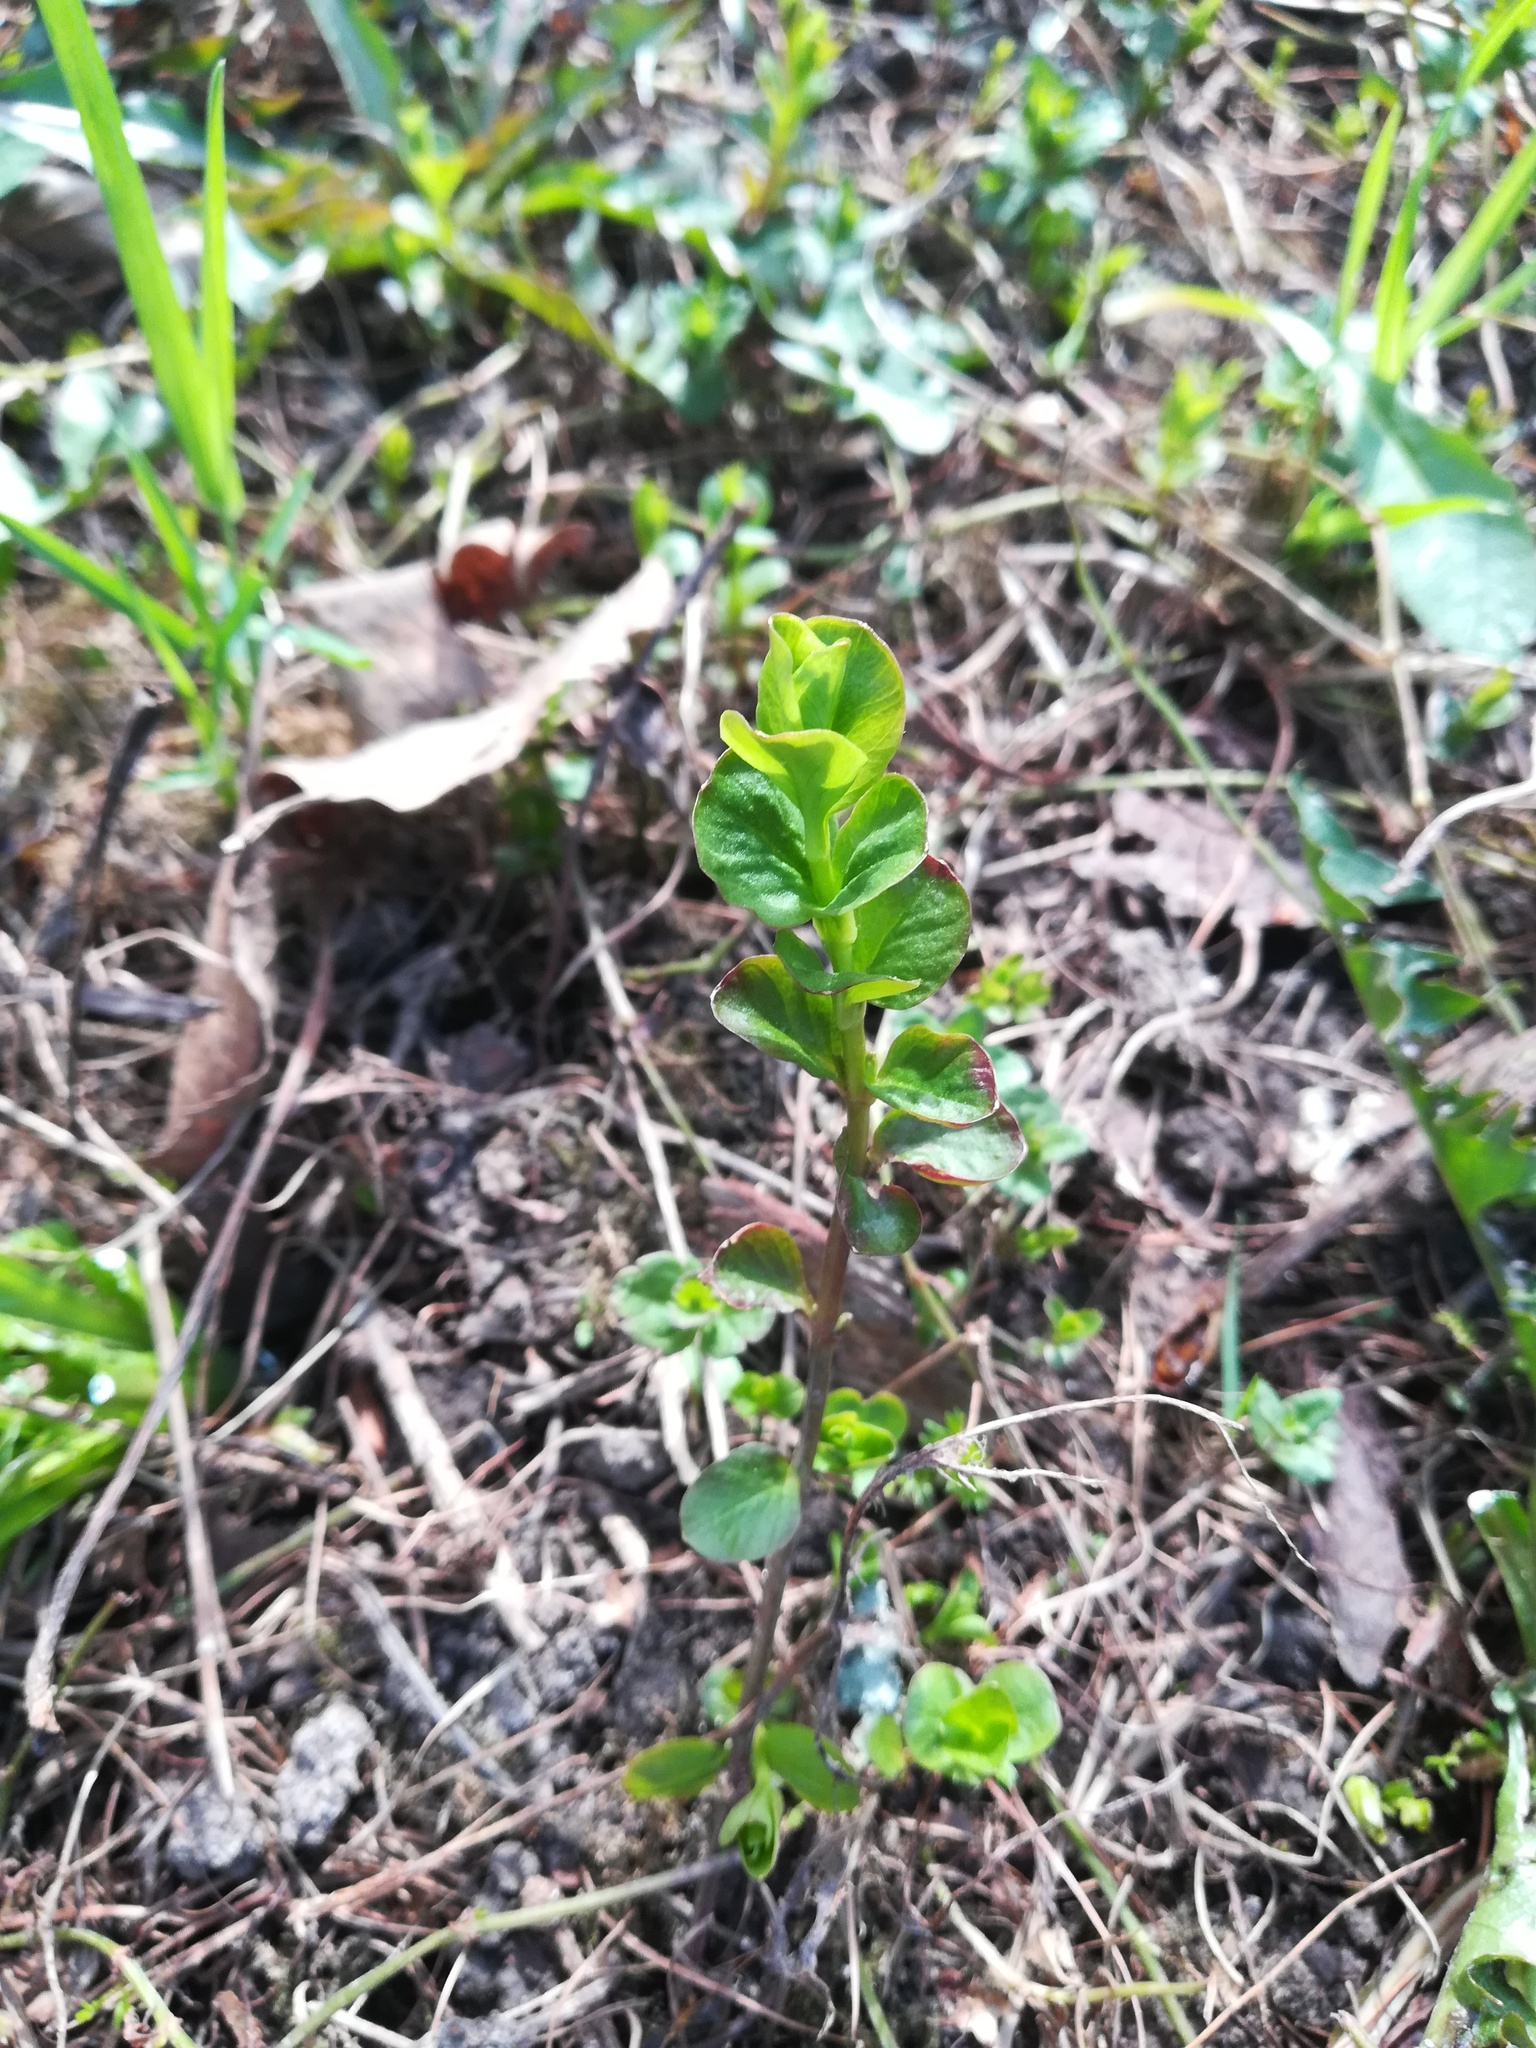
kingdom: Plantae
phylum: Tracheophyta
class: Magnoliopsida
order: Ericales
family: Primulaceae
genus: Lysimachia
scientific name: Lysimachia nummularia
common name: Moneywort
